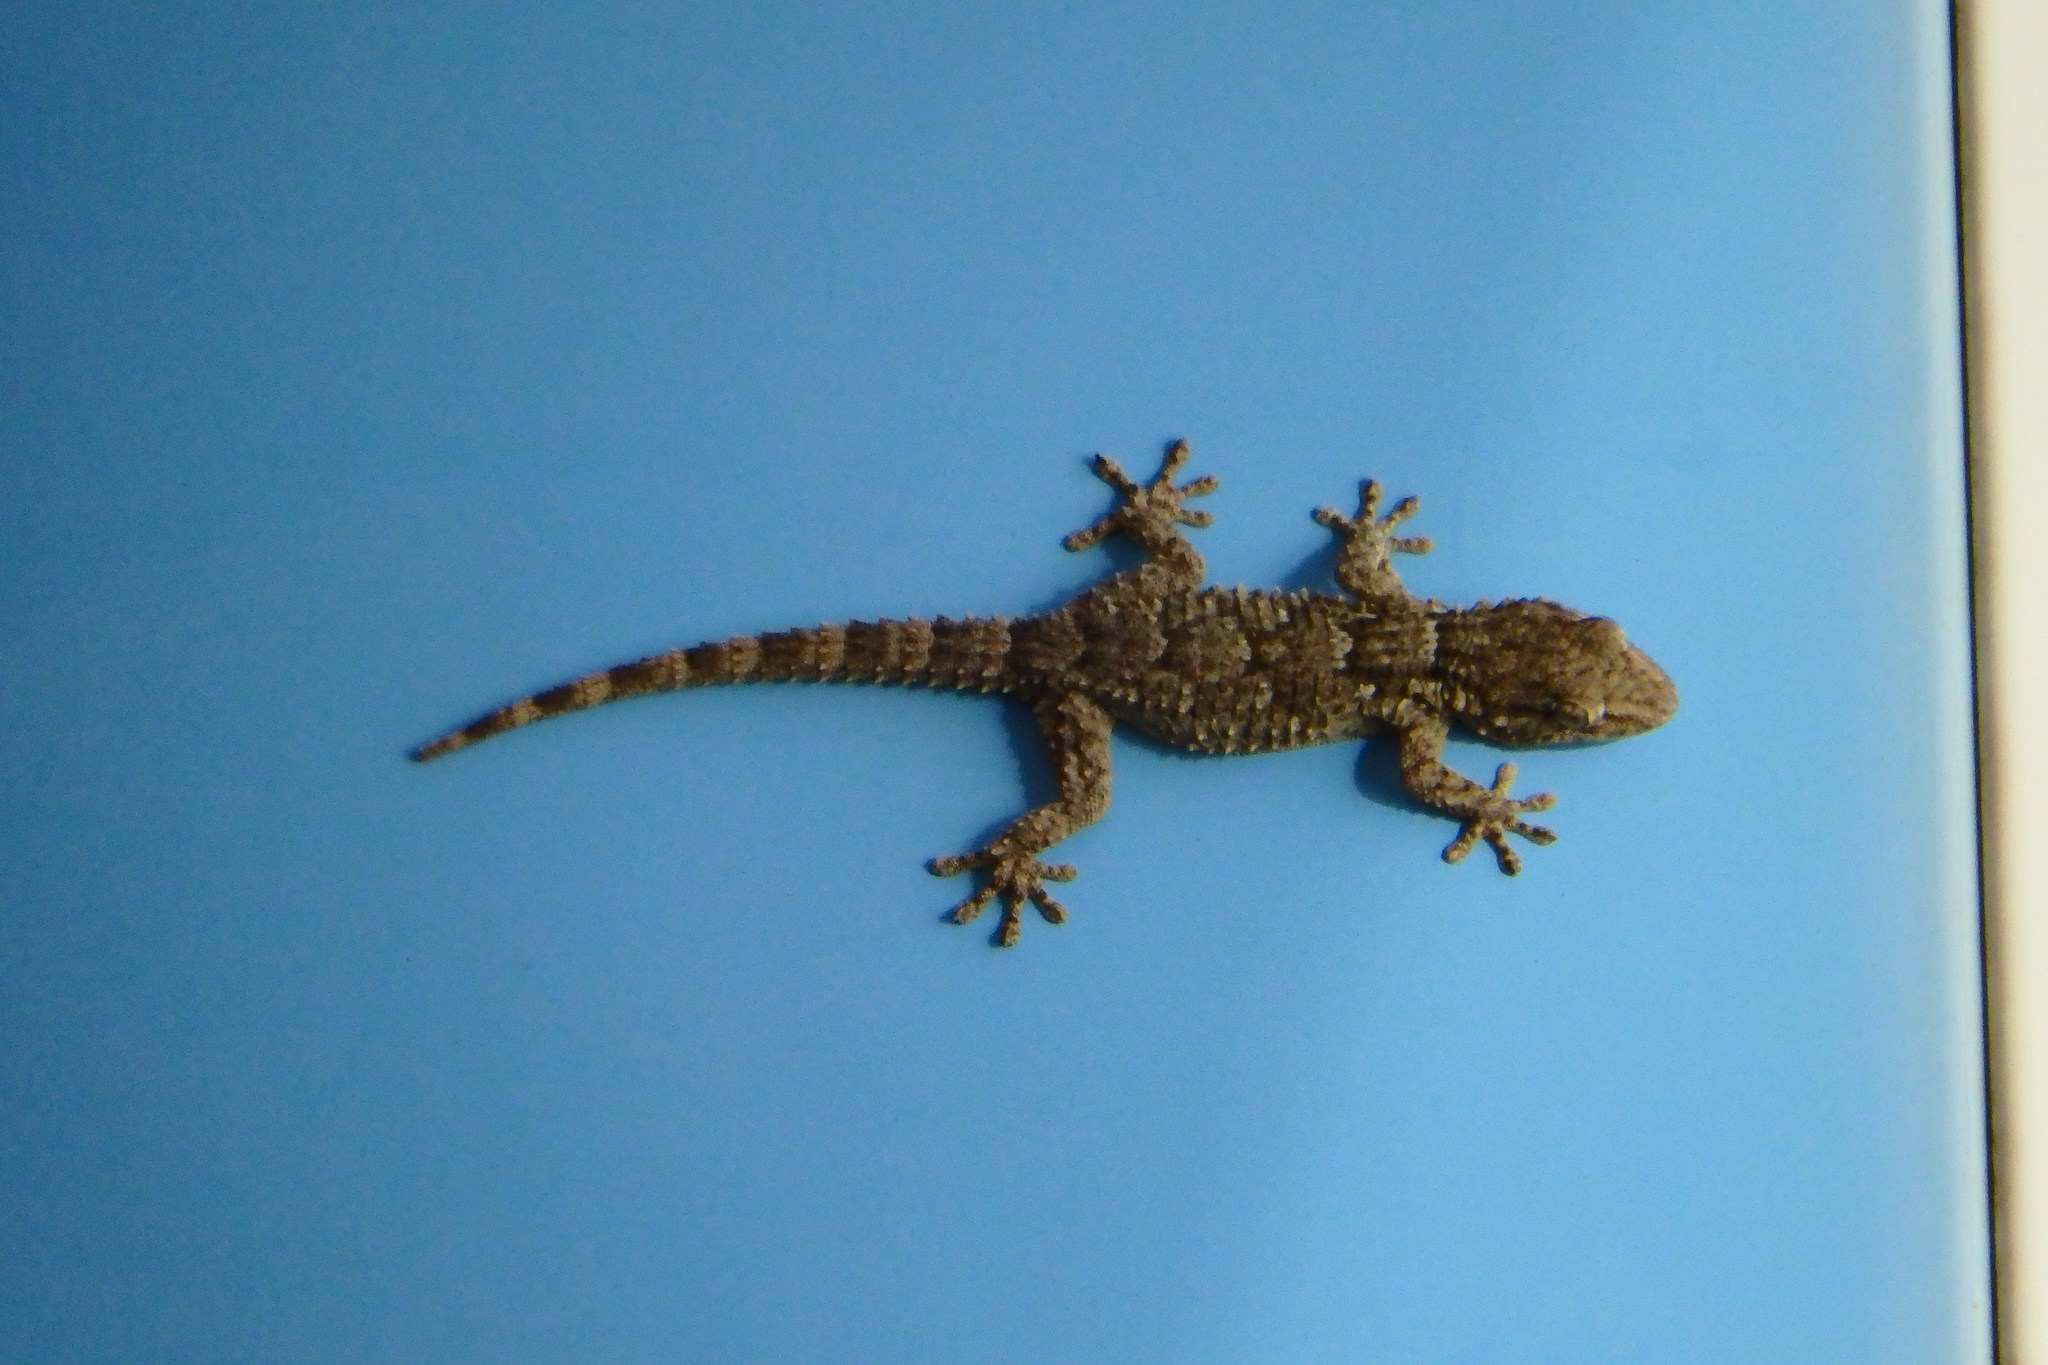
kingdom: Animalia
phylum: Chordata
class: Squamata
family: Phyllodactylidae
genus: Tarentola
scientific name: Tarentola mauritanica
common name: Moorish gecko
